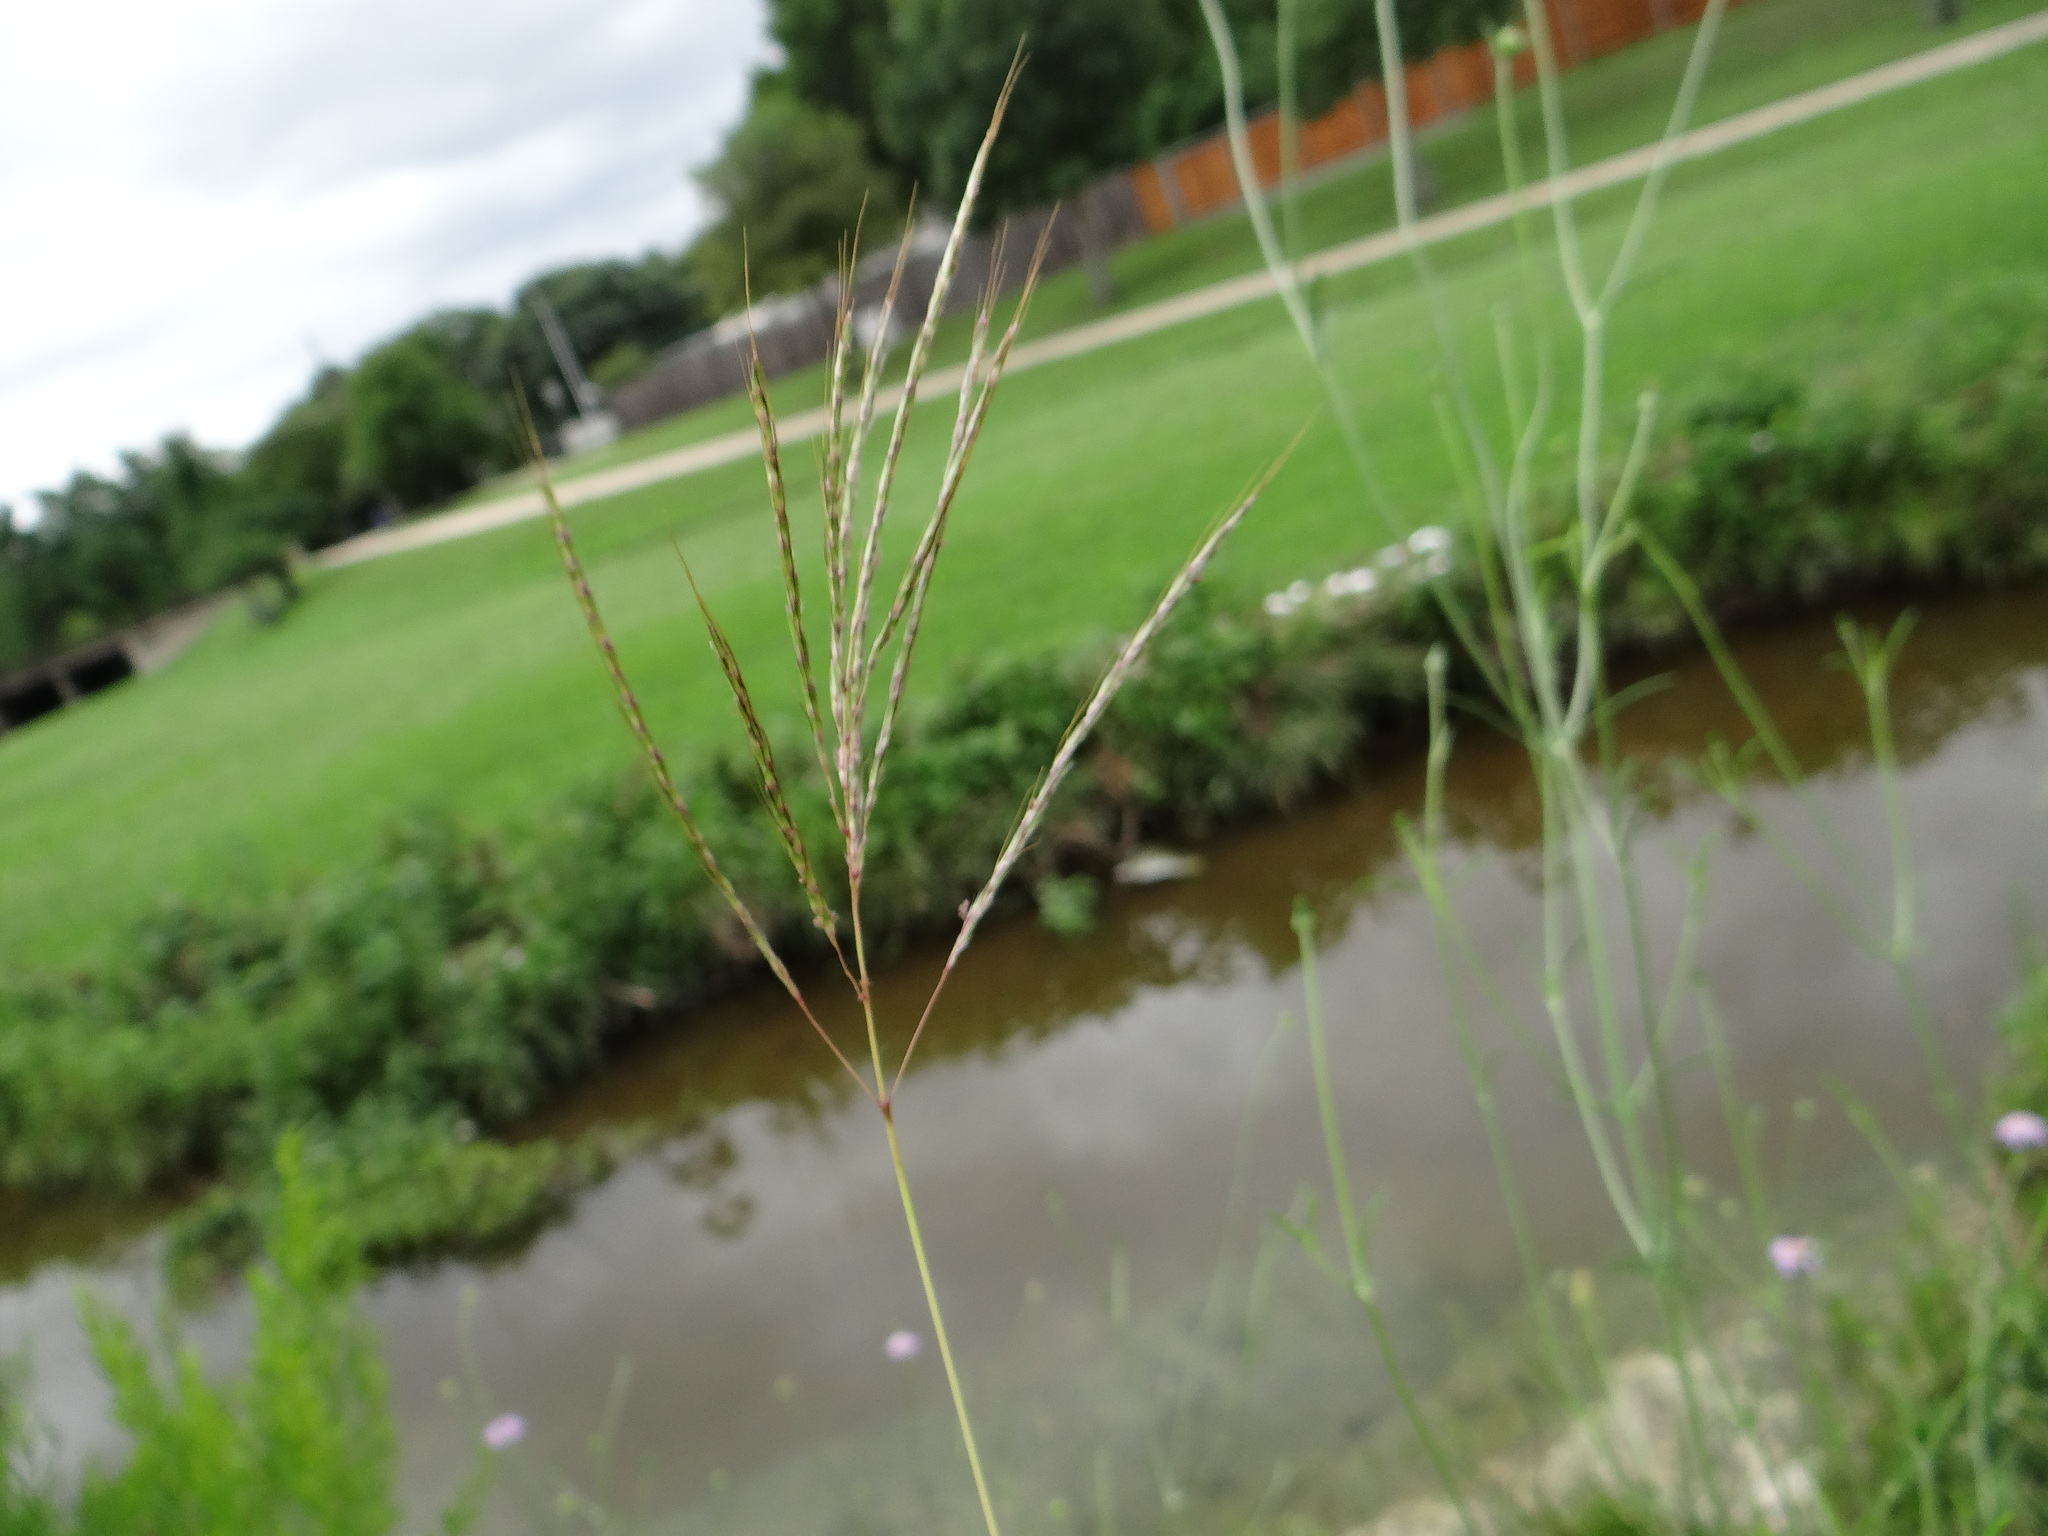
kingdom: Plantae
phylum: Tracheophyta
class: Liliopsida
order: Poales
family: Poaceae
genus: Bothriochloa
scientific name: Bothriochloa ischaemum
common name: Yellow bluestem
